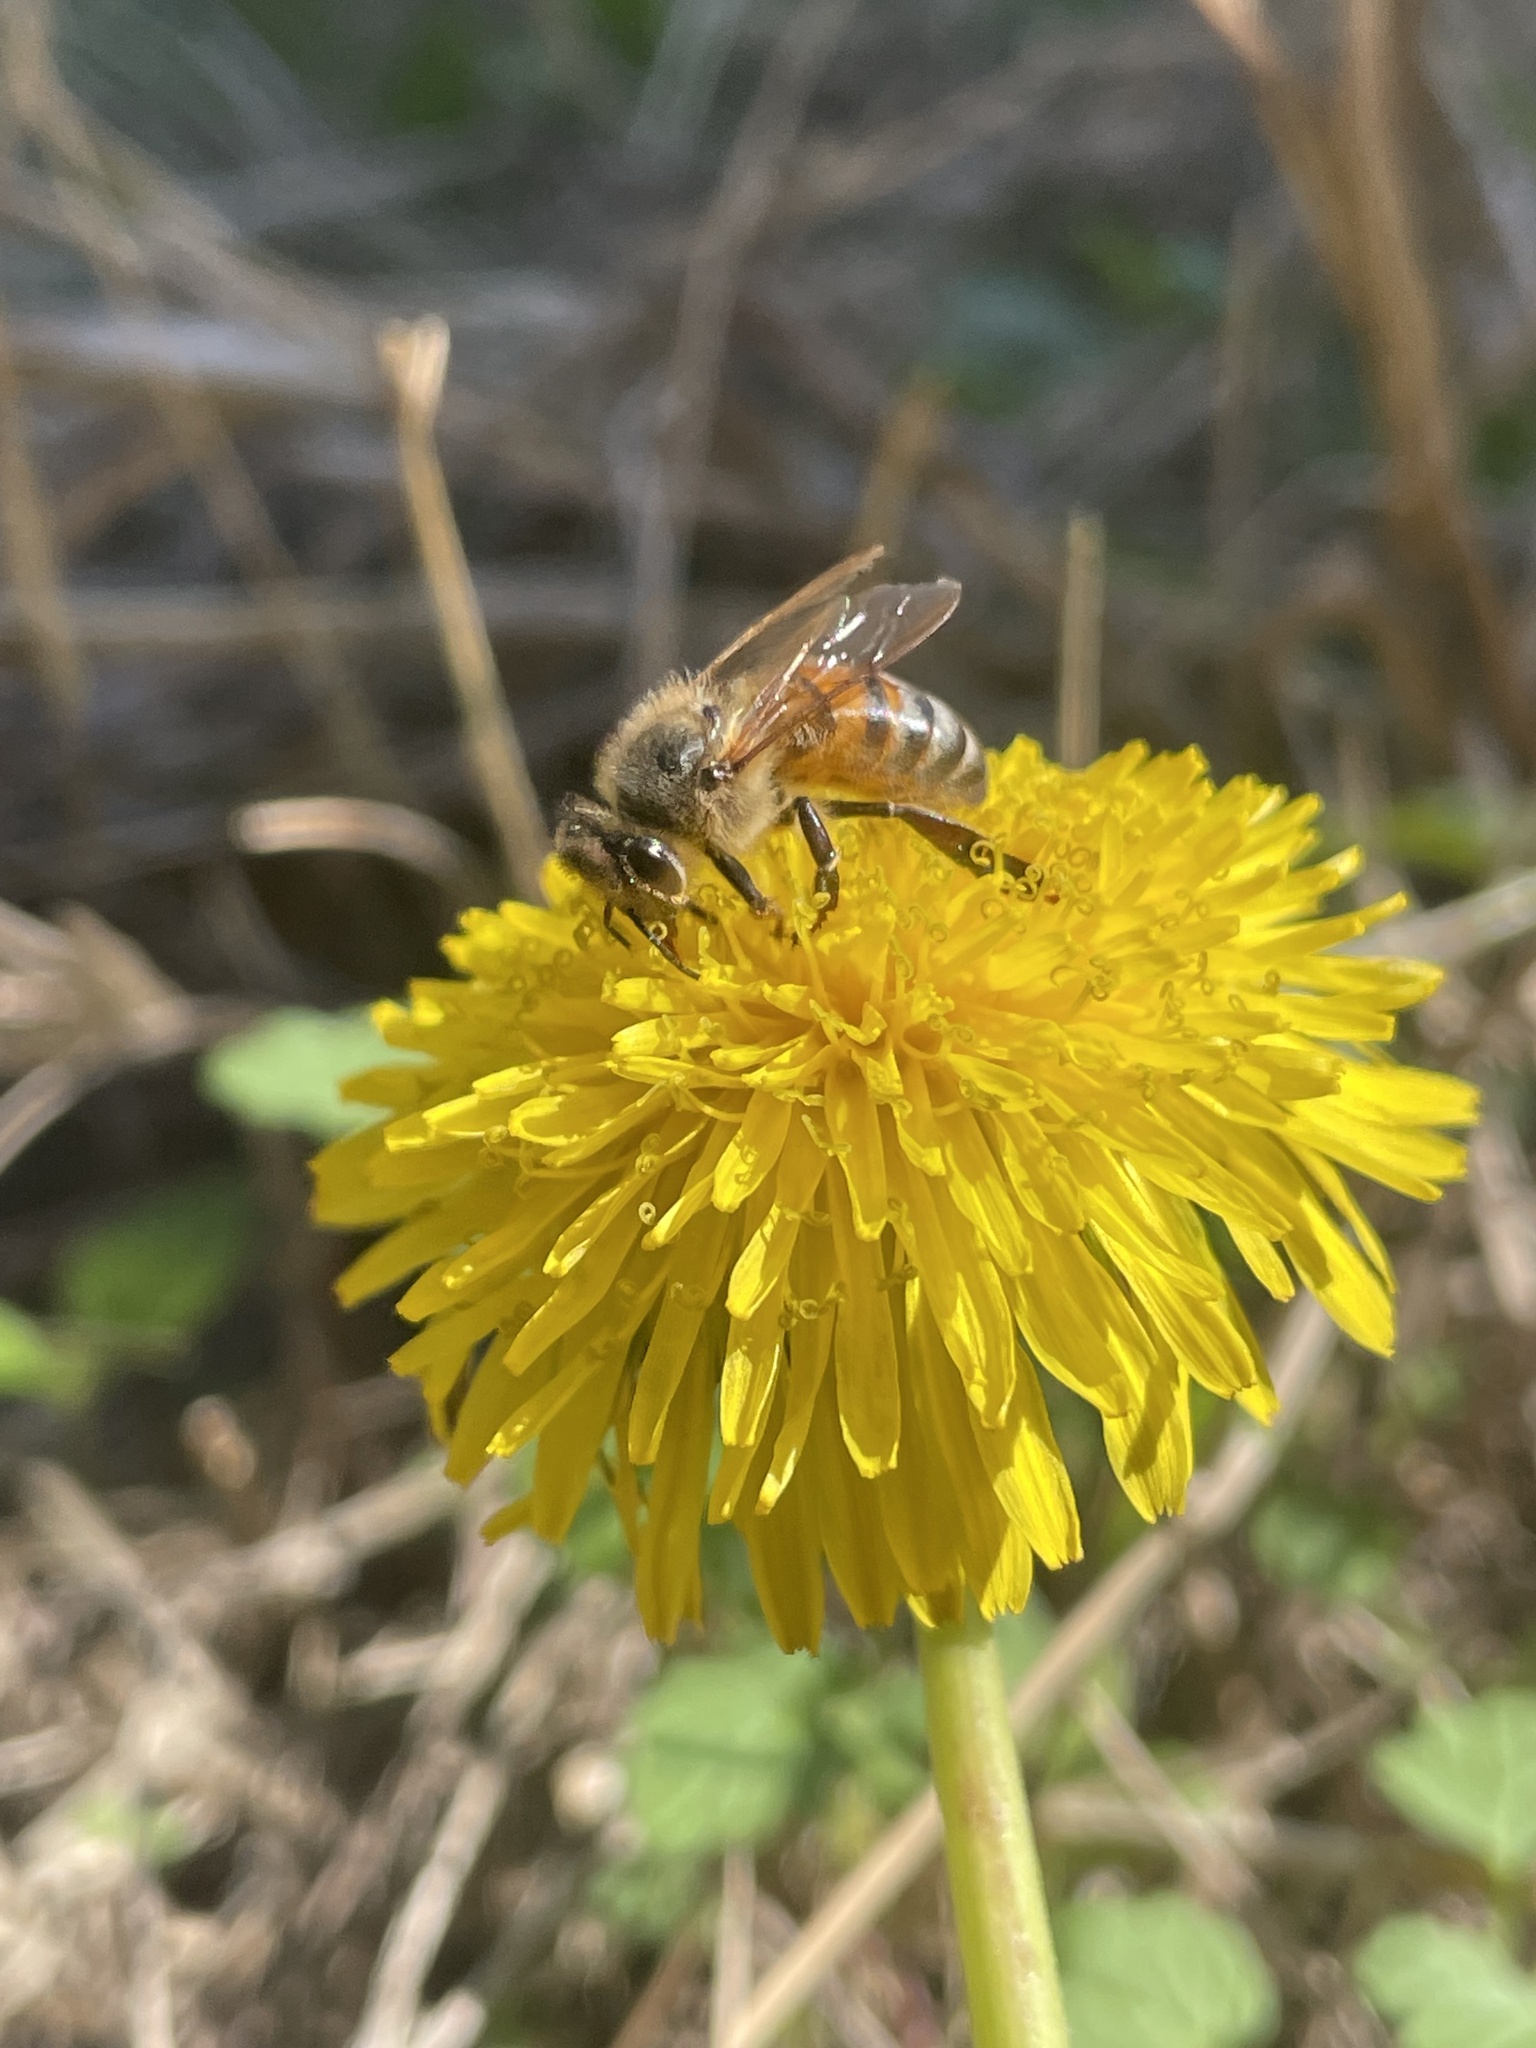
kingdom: Animalia
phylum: Arthropoda
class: Insecta
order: Hymenoptera
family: Apidae
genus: Apis
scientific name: Apis mellifera
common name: Honey bee
